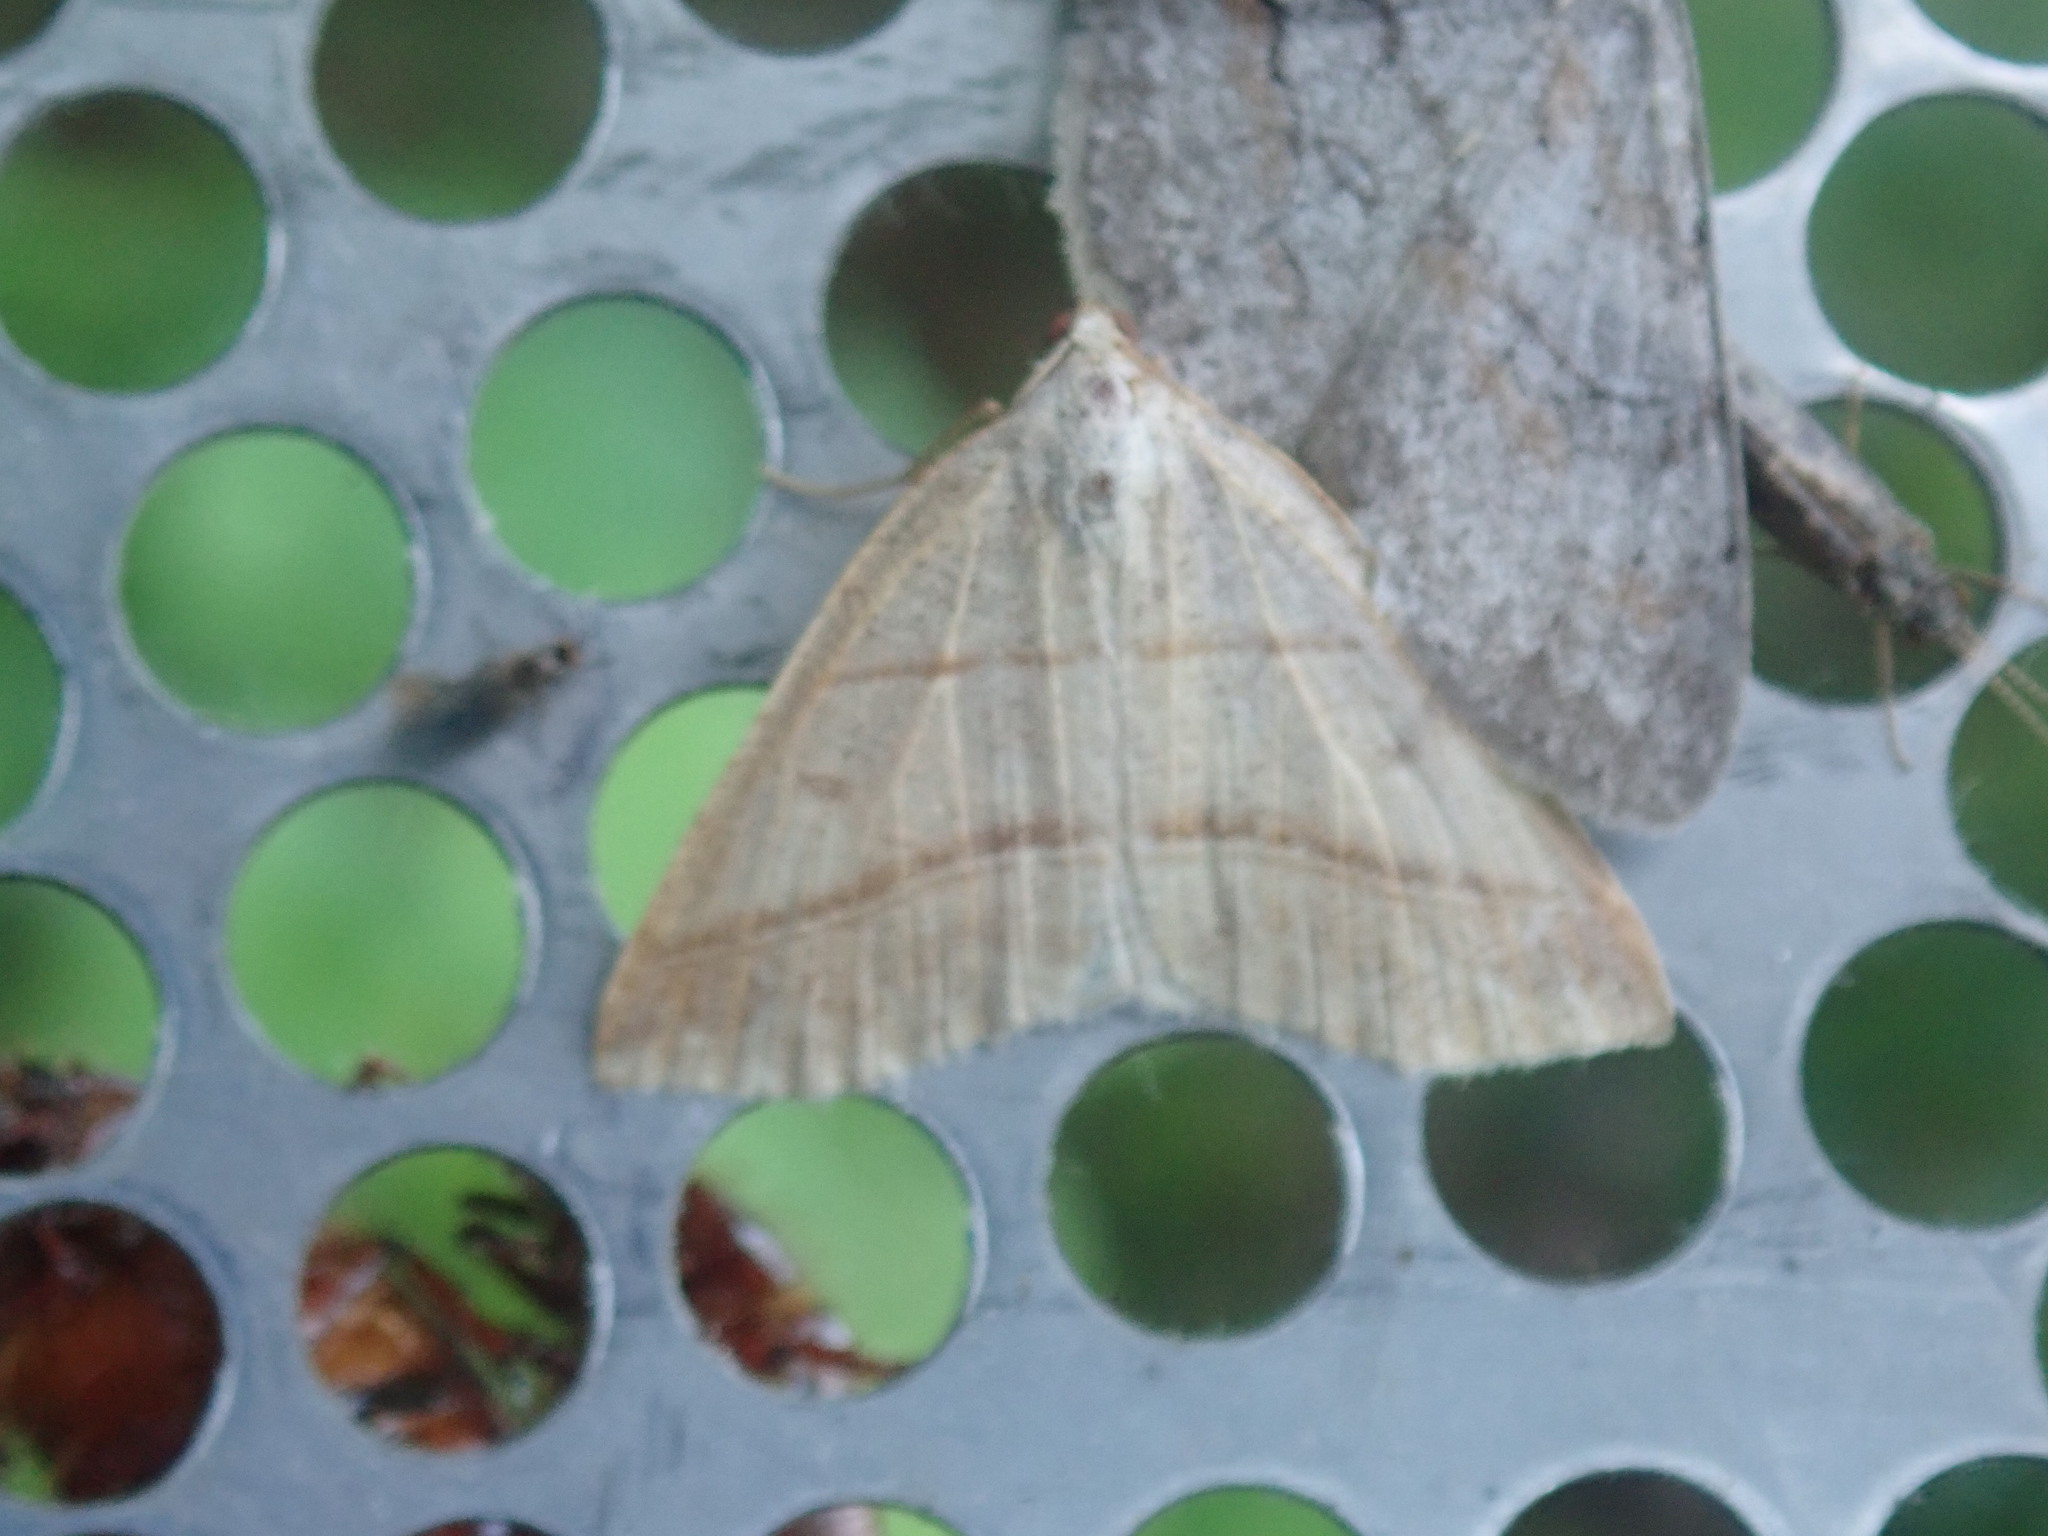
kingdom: Animalia
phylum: Arthropoda
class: Insecta
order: Lepidoptera
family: Pterophoridae
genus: Pterophorus
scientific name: Pterophorus Petrophora subaequaria
